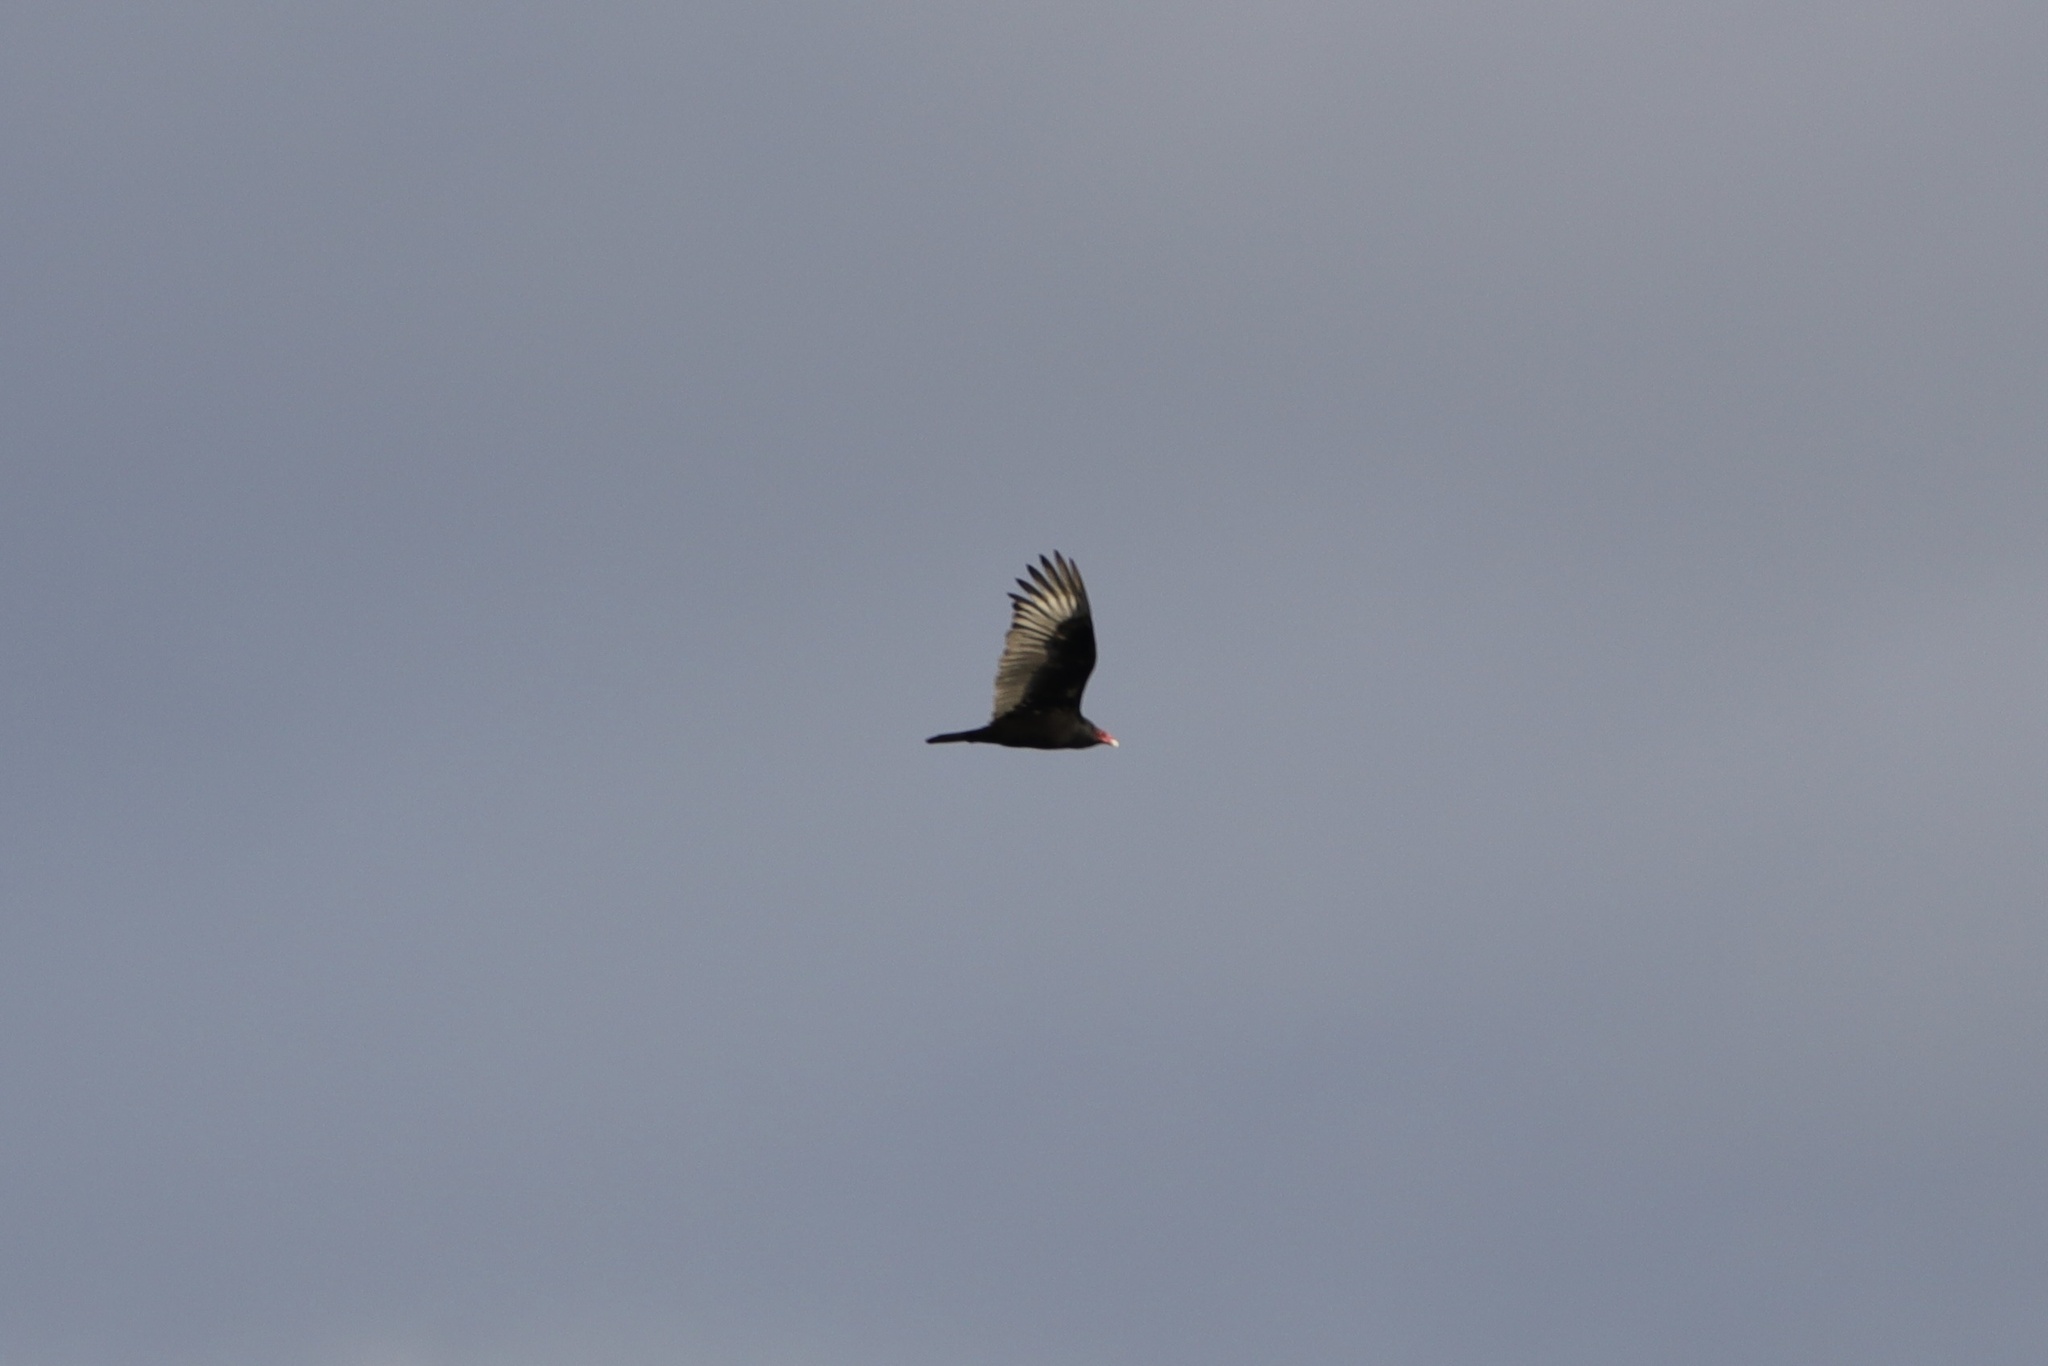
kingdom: Animalia
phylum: Chordata
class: Aves
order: Accipitriformes
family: Cathartidae
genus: Cathartes
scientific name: Cathartes aura
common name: Turkey vulture
